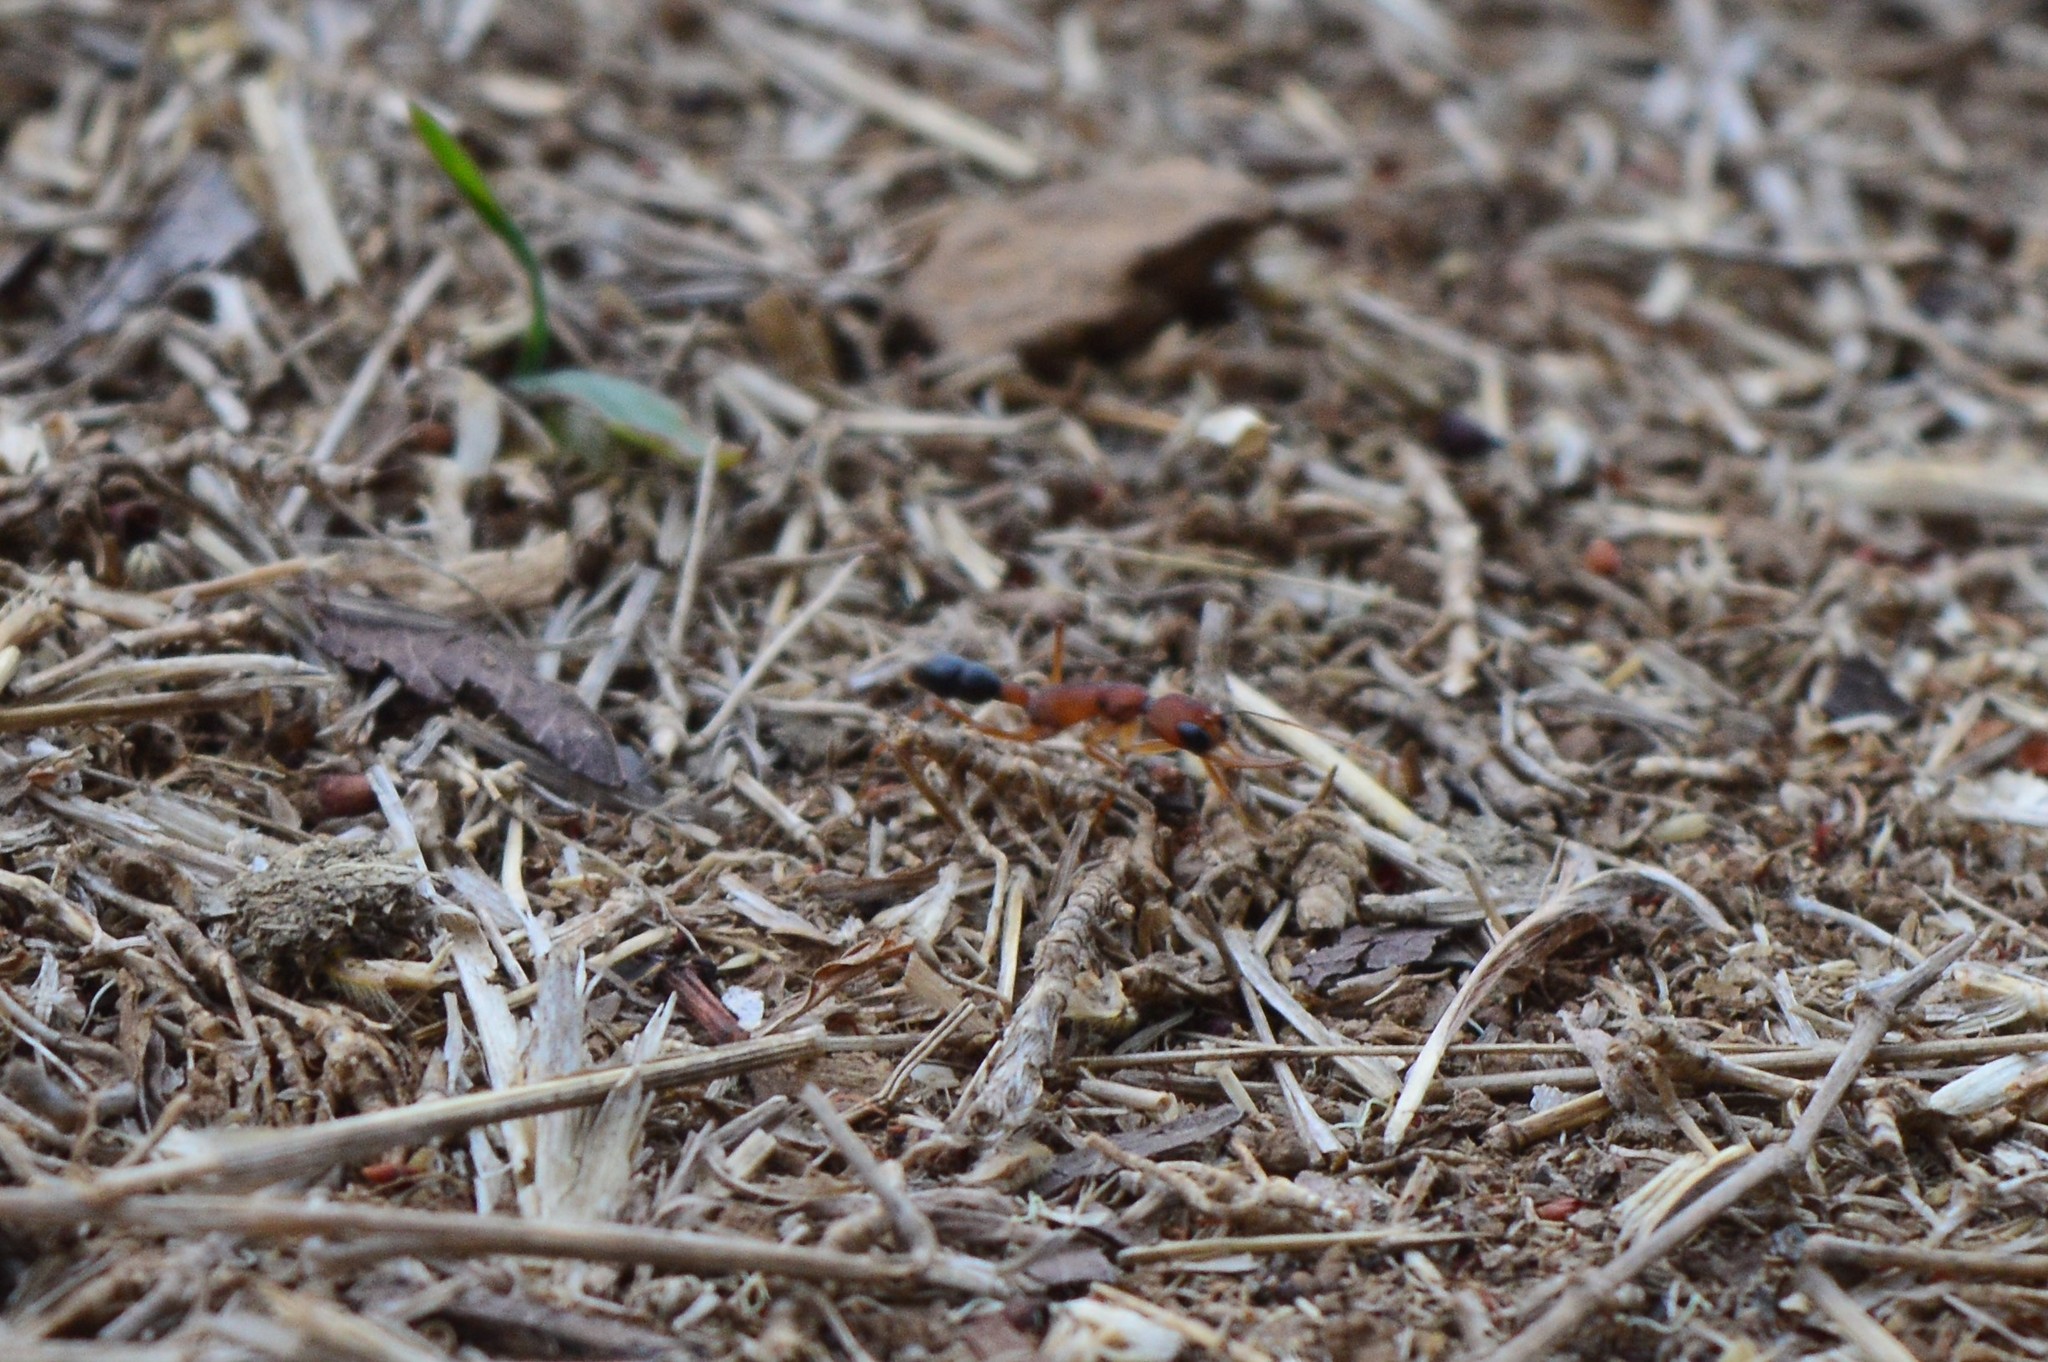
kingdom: Animalia
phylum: Arthropoda
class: Insecta
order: Hymenoptera
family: Formicidae
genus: Harpegnathos
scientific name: Harpegnathos saltator
